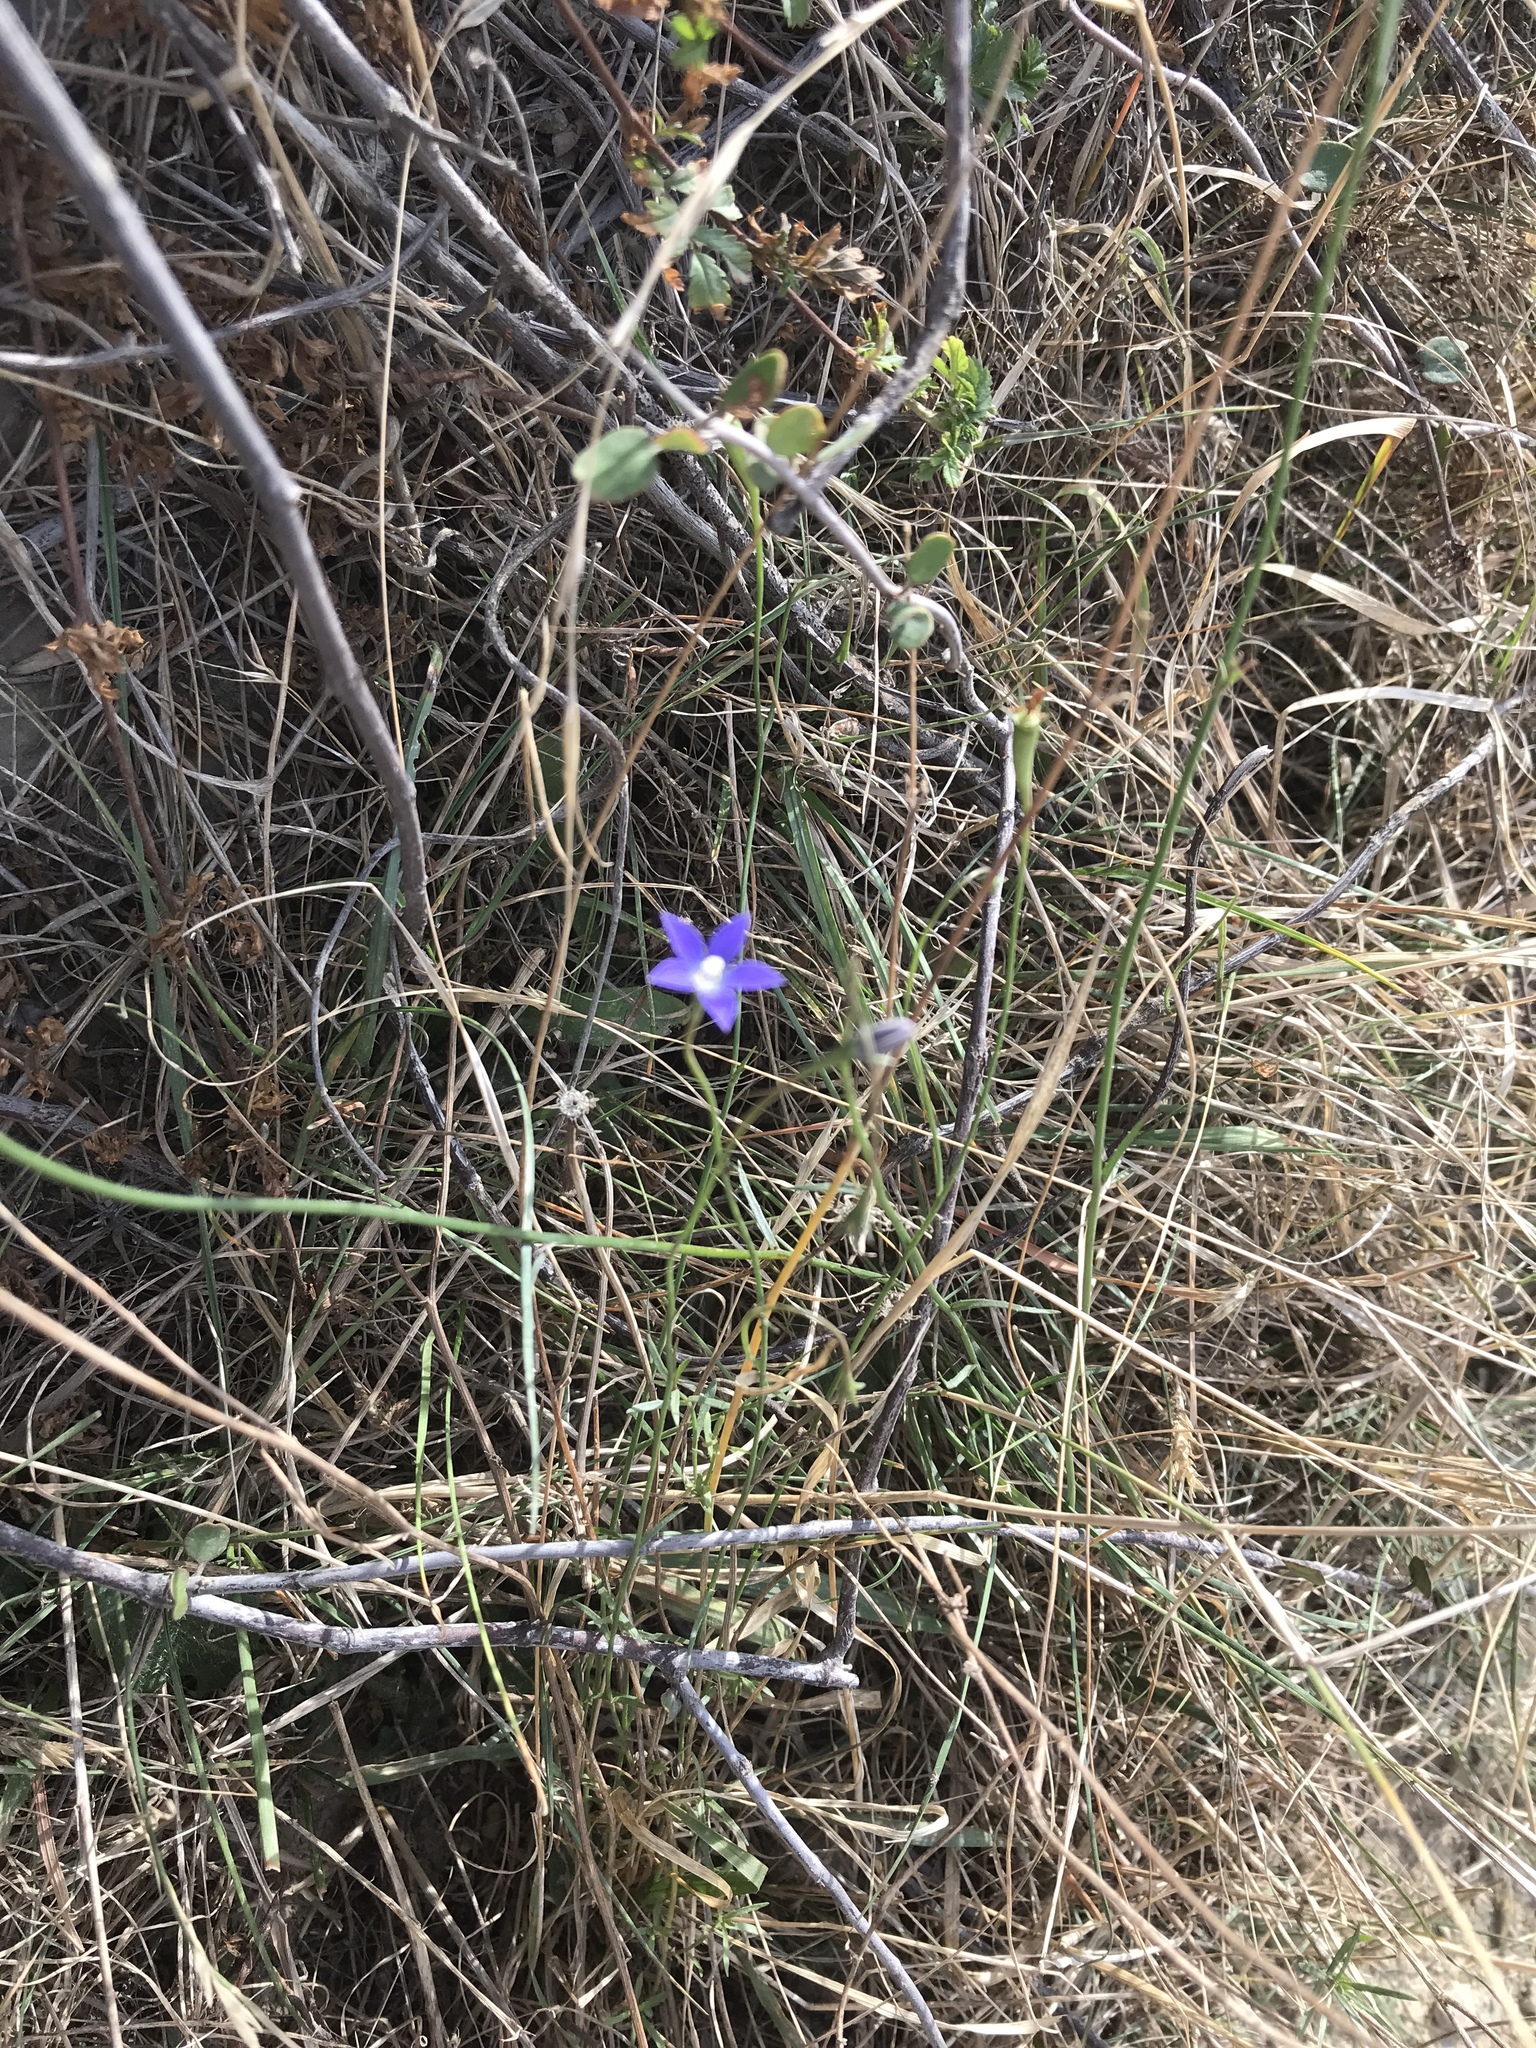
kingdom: Plantae
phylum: Tracheophyta
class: Magnoliopsida
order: Asterales
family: Campanulaceae
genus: Wahlenbergia
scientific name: Wahlenbergia violacea
